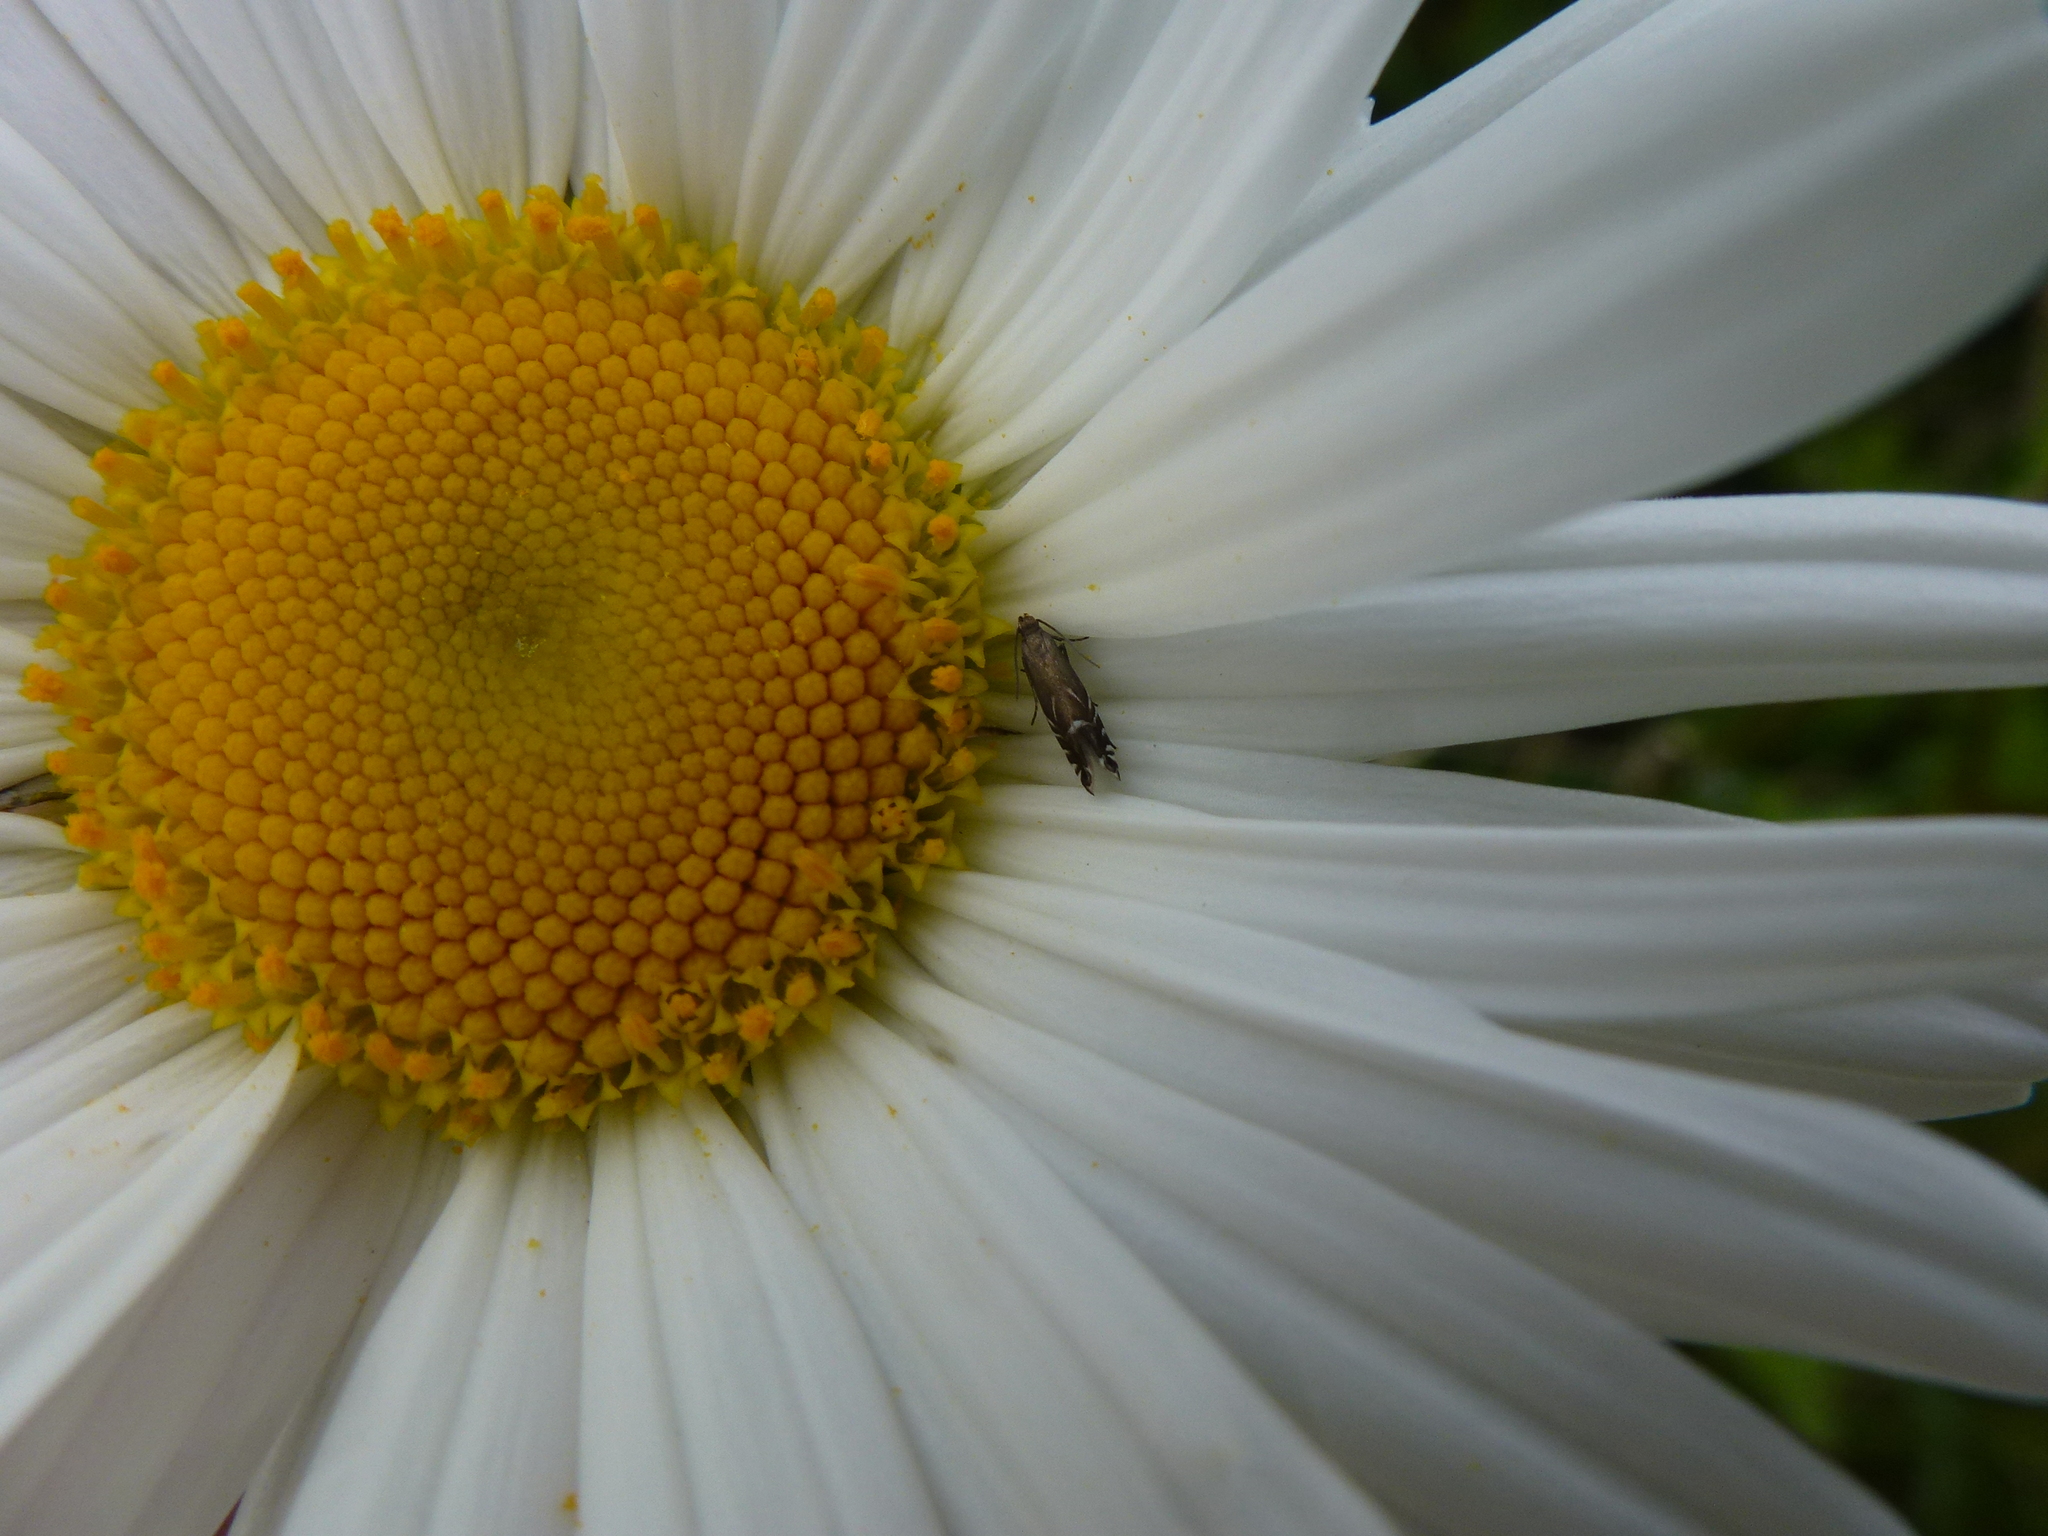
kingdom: Animalia
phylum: Arthropoda
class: Insecta
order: Lepidoptera
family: Glyphipterigidae
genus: Glyphipterix
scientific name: Glyphipterix simpliciella
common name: Cocksfoot moth
